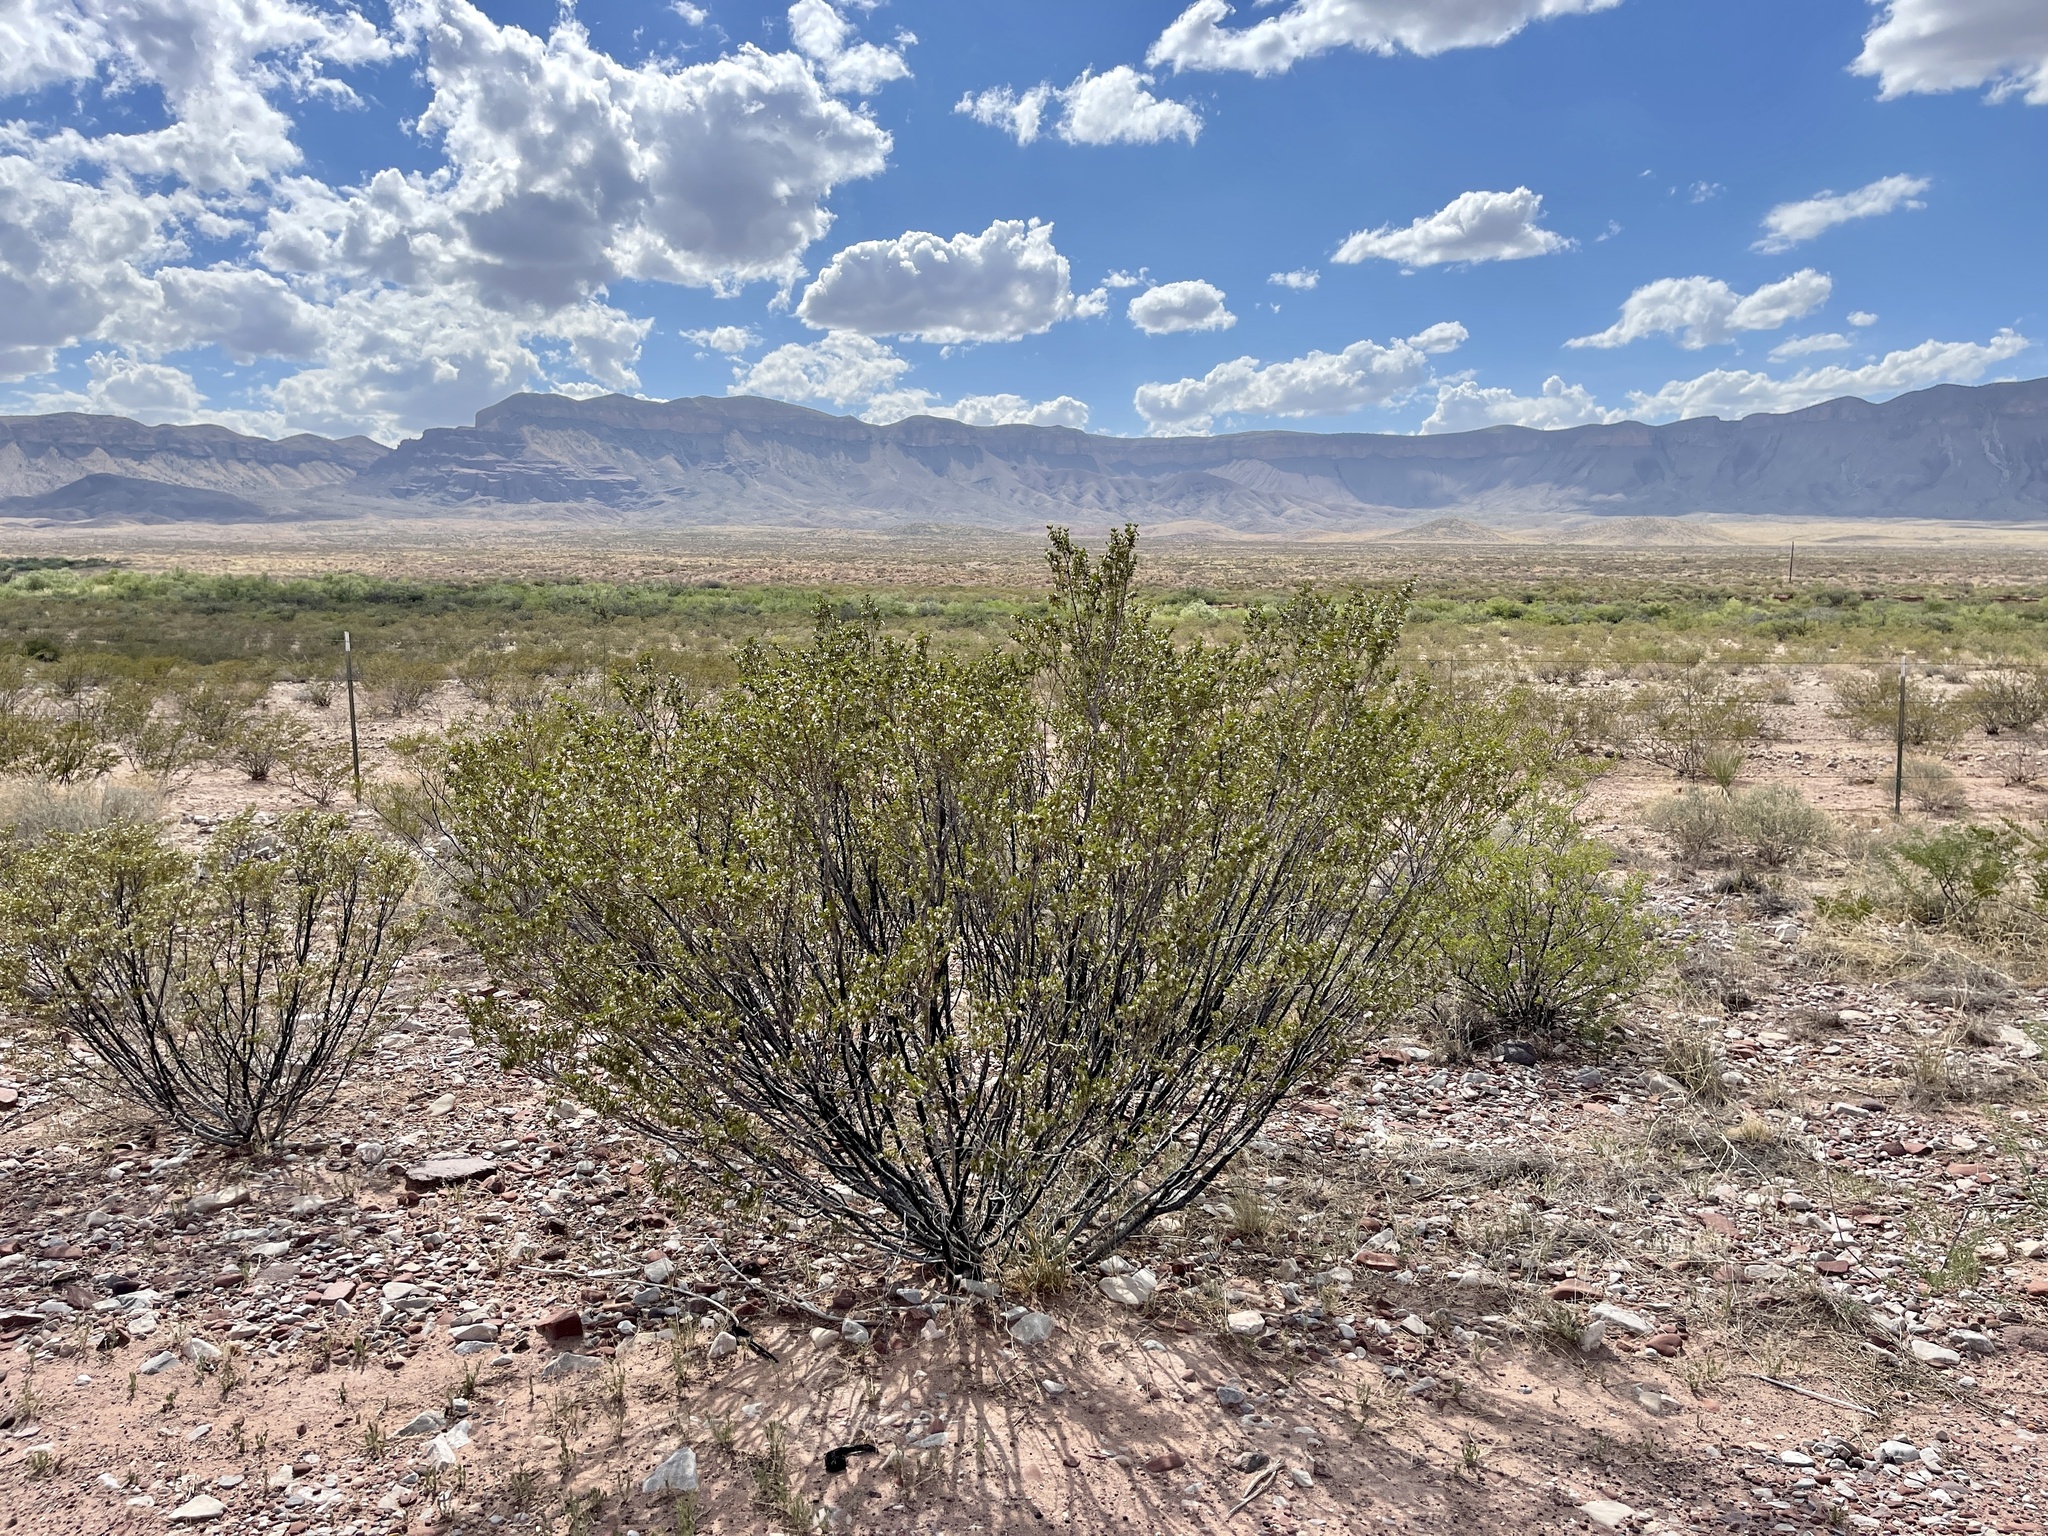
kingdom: Plantae
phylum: Tracheophyta
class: Magnoliopsida
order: Zygophyllales
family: Zygophyllaceae
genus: Larrea
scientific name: Larrea tridentata
